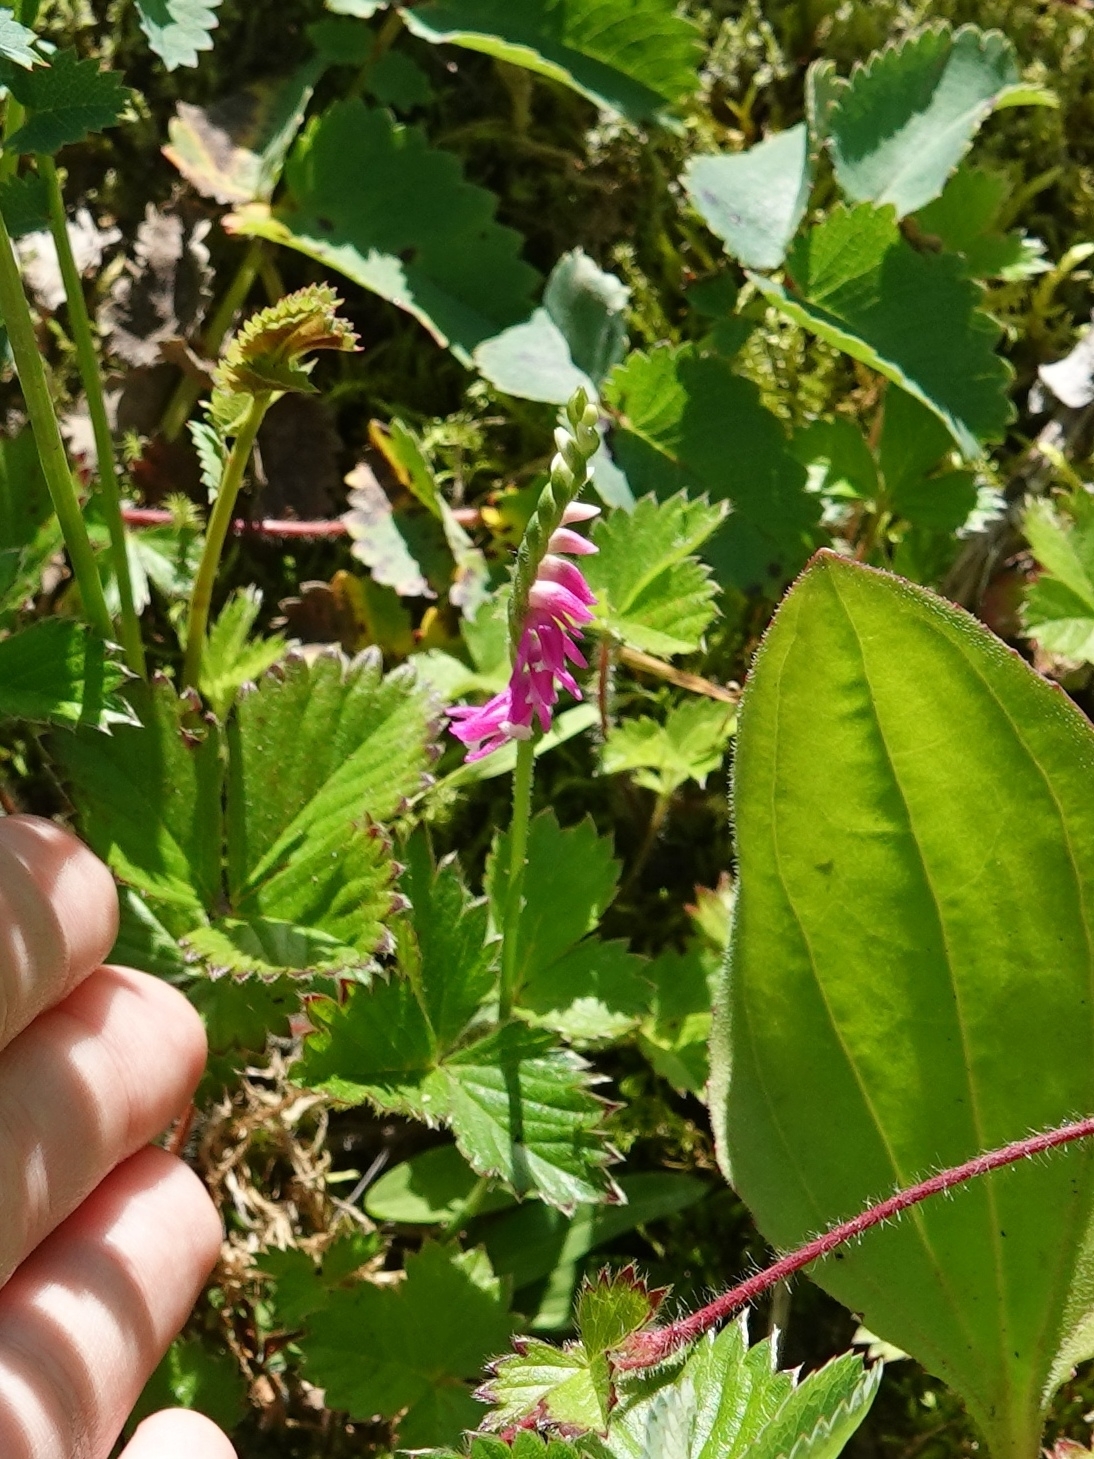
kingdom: Plantae
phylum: Tracheophyta
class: Liliopsida
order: Asparagales
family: Orchidaceae
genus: Spiranthes
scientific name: Spiranthes australis
